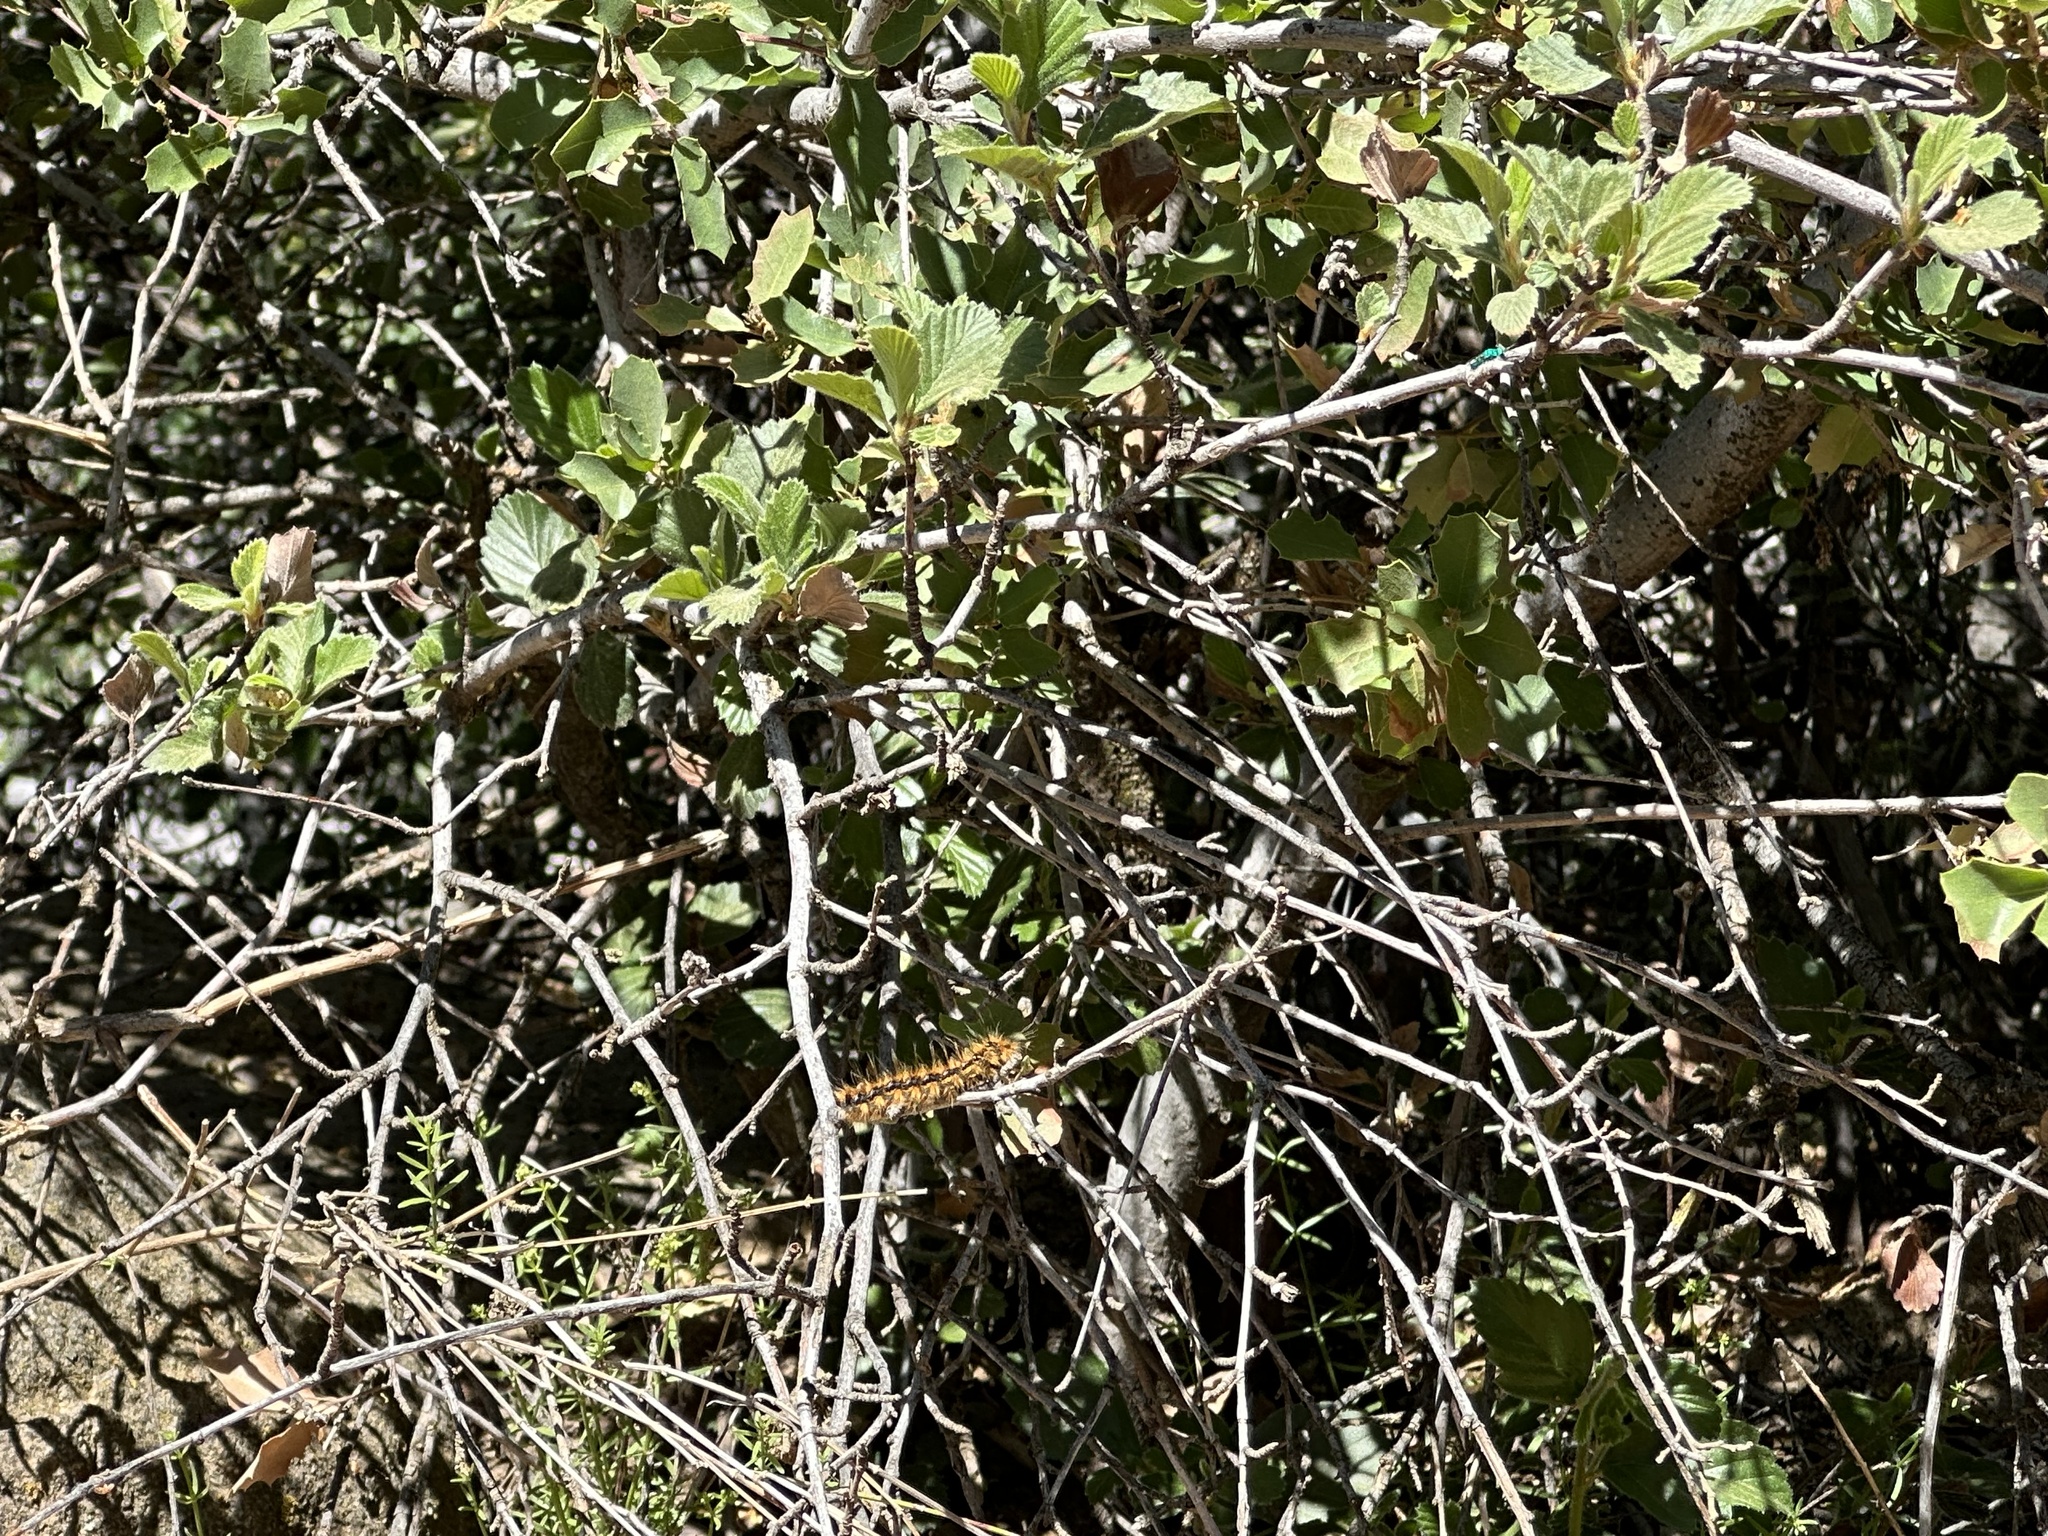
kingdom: Animalia
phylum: Arthropoda
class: Insecta
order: Lepidoptera
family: Lasiocampidae
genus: Malacosoma
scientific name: Malacosoma constricta
